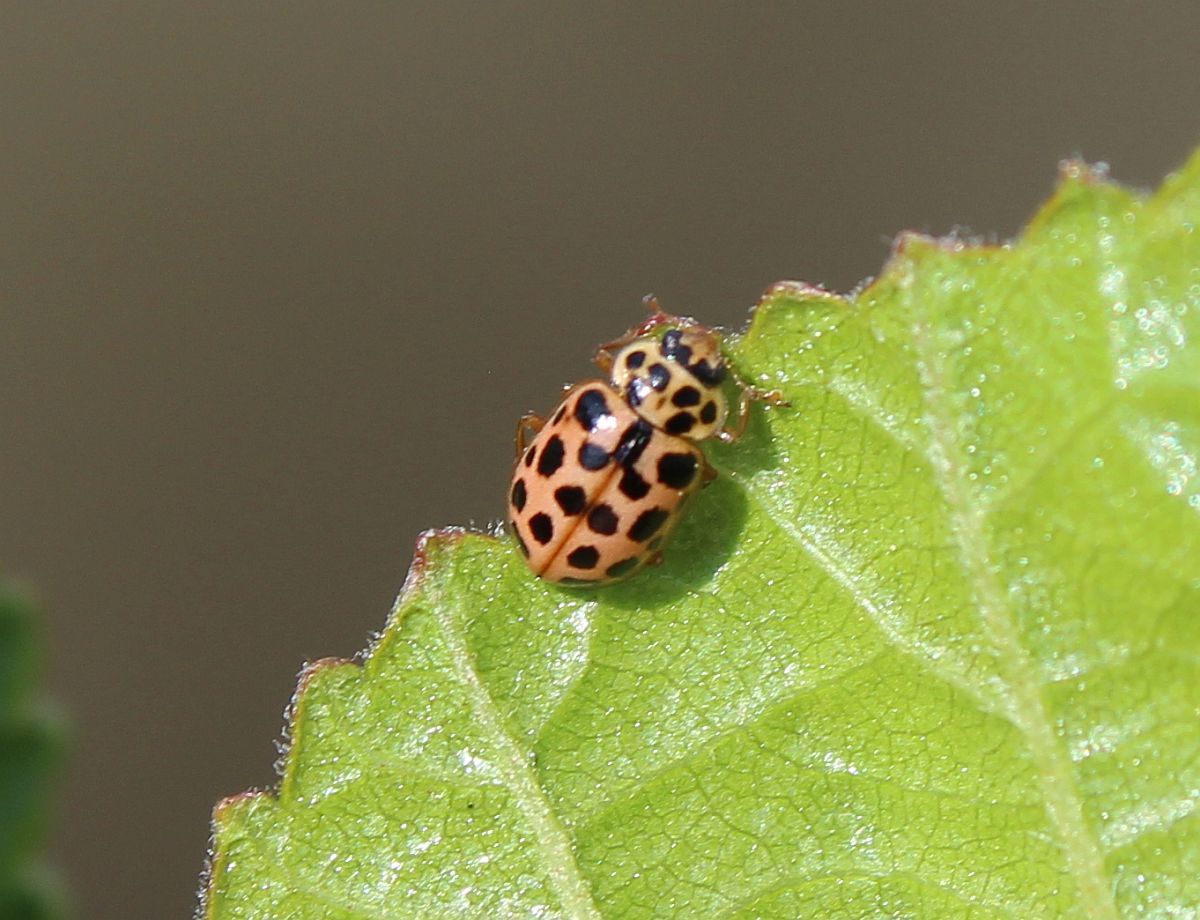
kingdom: Animalia
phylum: Arthropoda
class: Insecta
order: Coleoptera
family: Coccinellidae
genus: Anisosticta
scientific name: Anisosticta novemdecimpunctata
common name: Water ladybird
